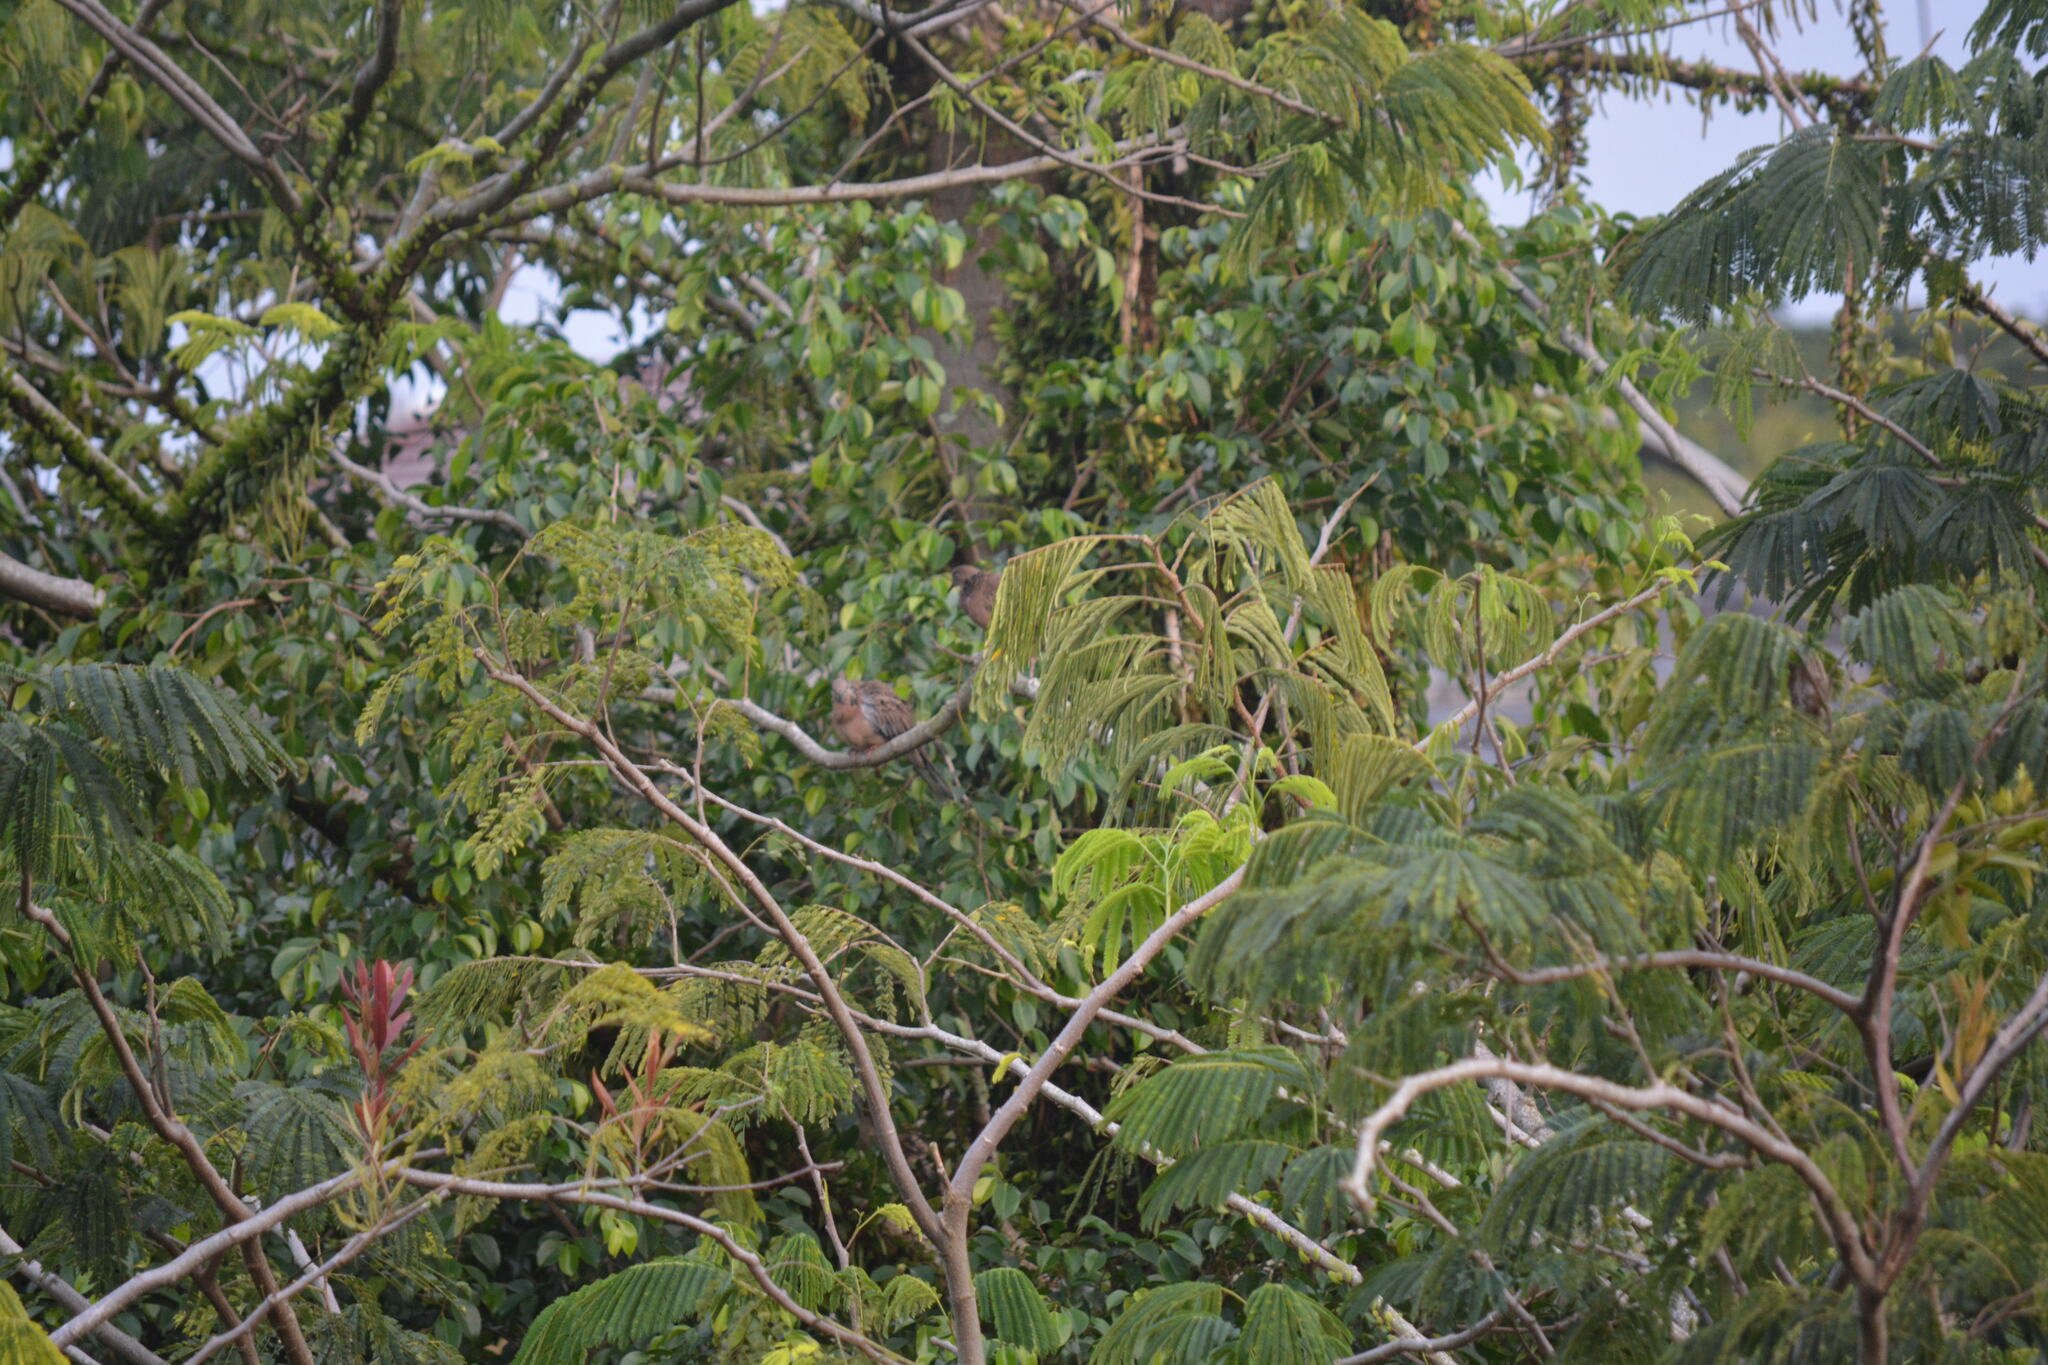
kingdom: Animalia
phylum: Chordata
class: Aves
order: Columbiformes
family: Columbidae
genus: Spilopelia
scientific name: Spilopelia chinensis
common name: Spotted dove
